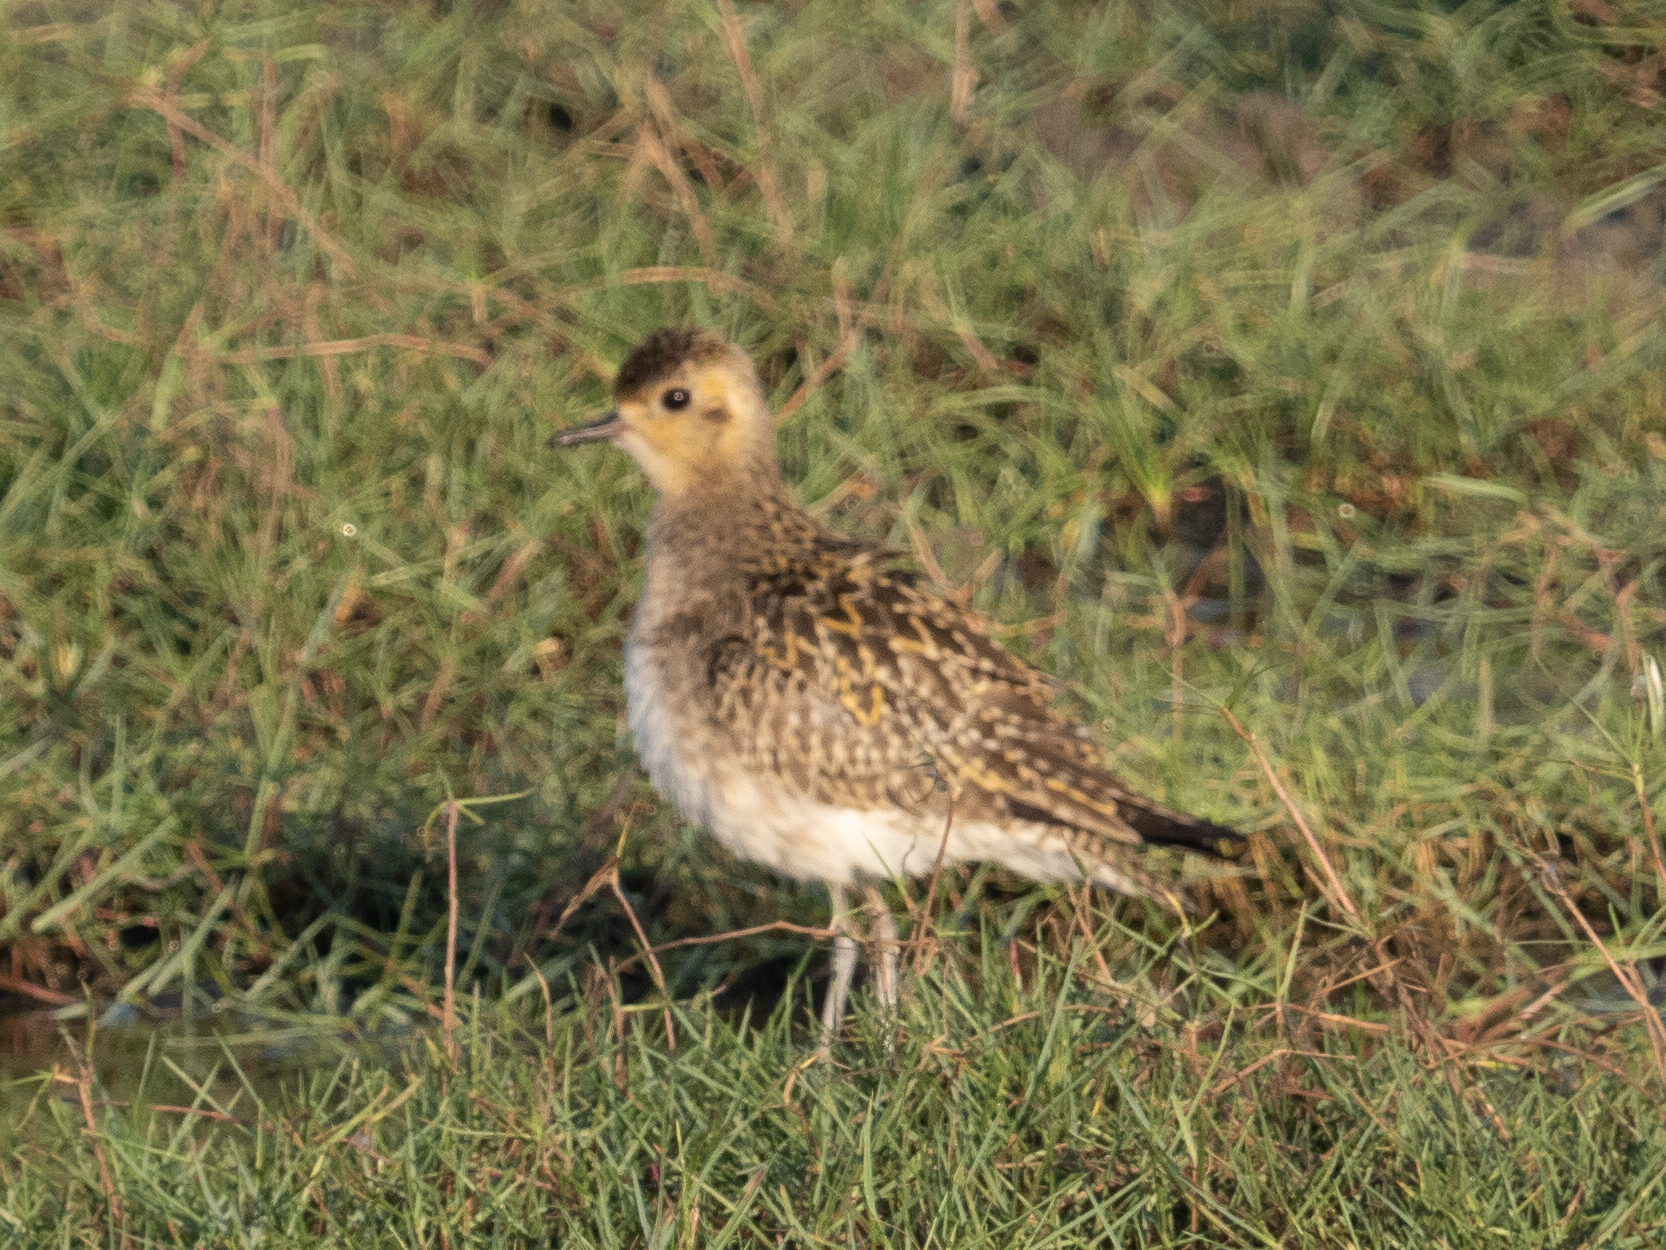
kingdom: Animalia
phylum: Chordata
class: Aves
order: Charadriiformes
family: Charadriidae
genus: Pluvialis
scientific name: Pluvialis fulva
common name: Pacific golden plover
